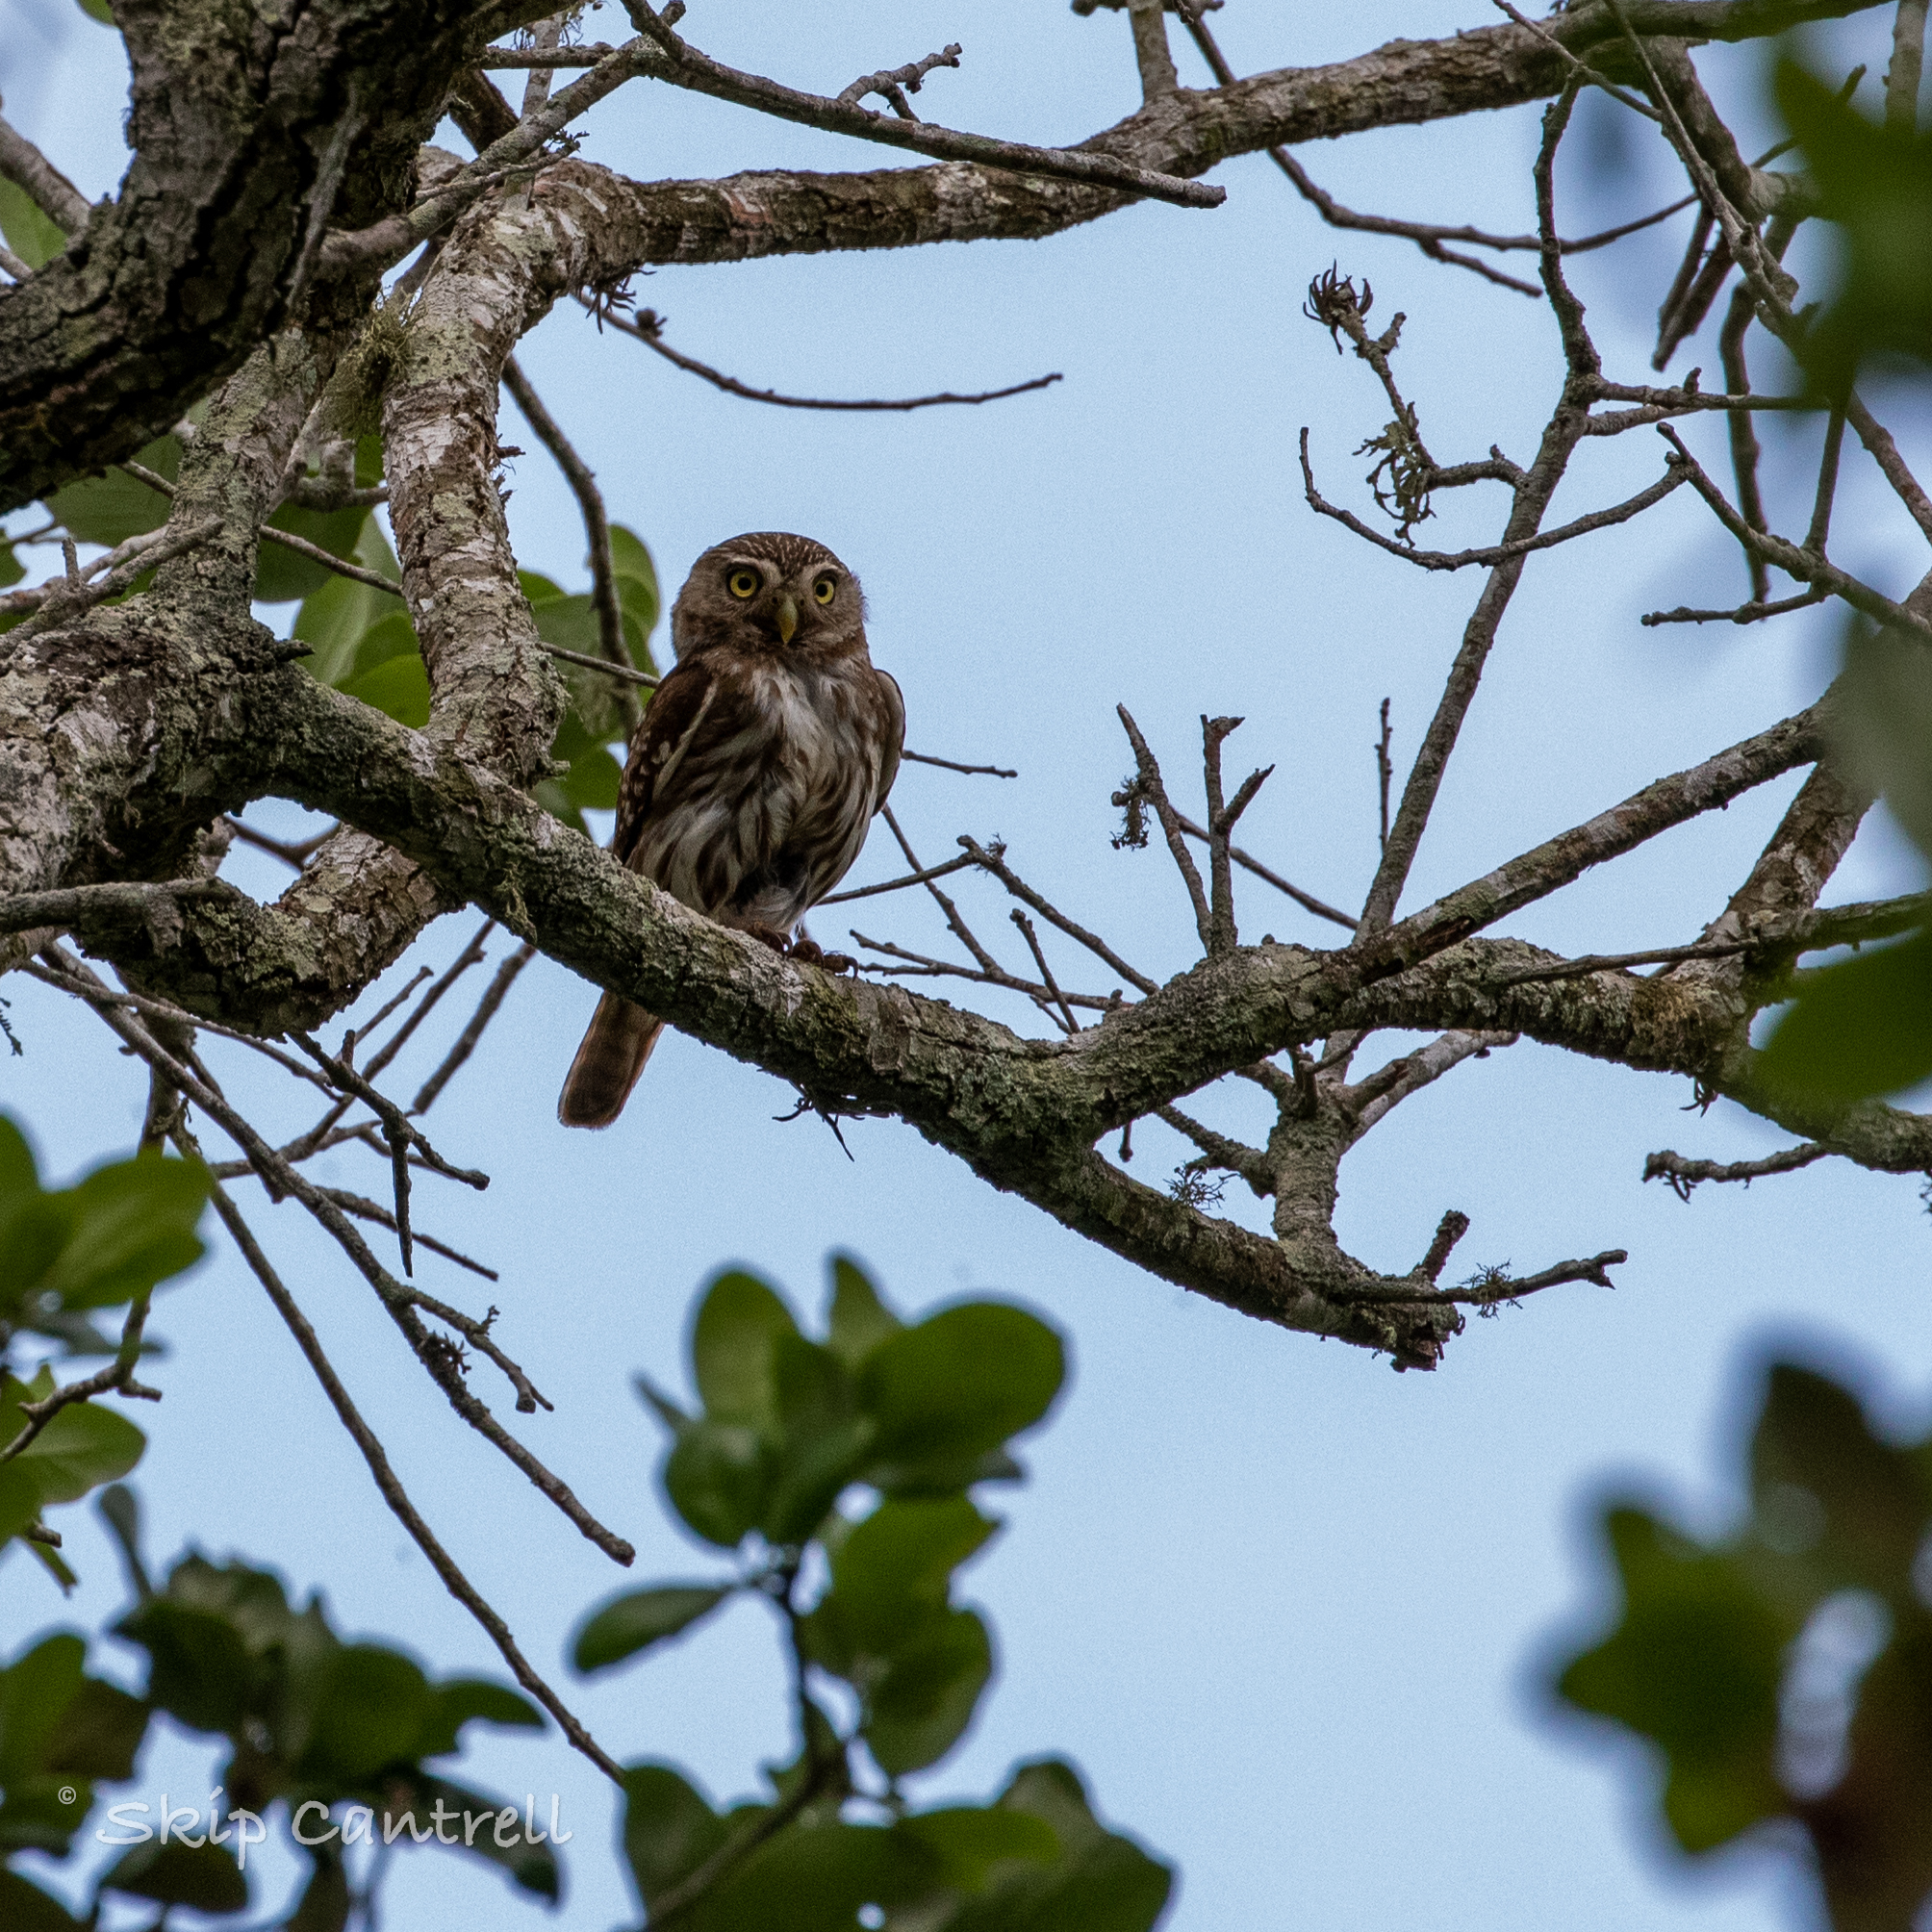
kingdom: Animalia
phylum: Chordata
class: Aves
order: Strigiformes
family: Strigidae
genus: Glaucidium
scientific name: Glaucidium brasilianum
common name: Ferruginous pygmy-owl
